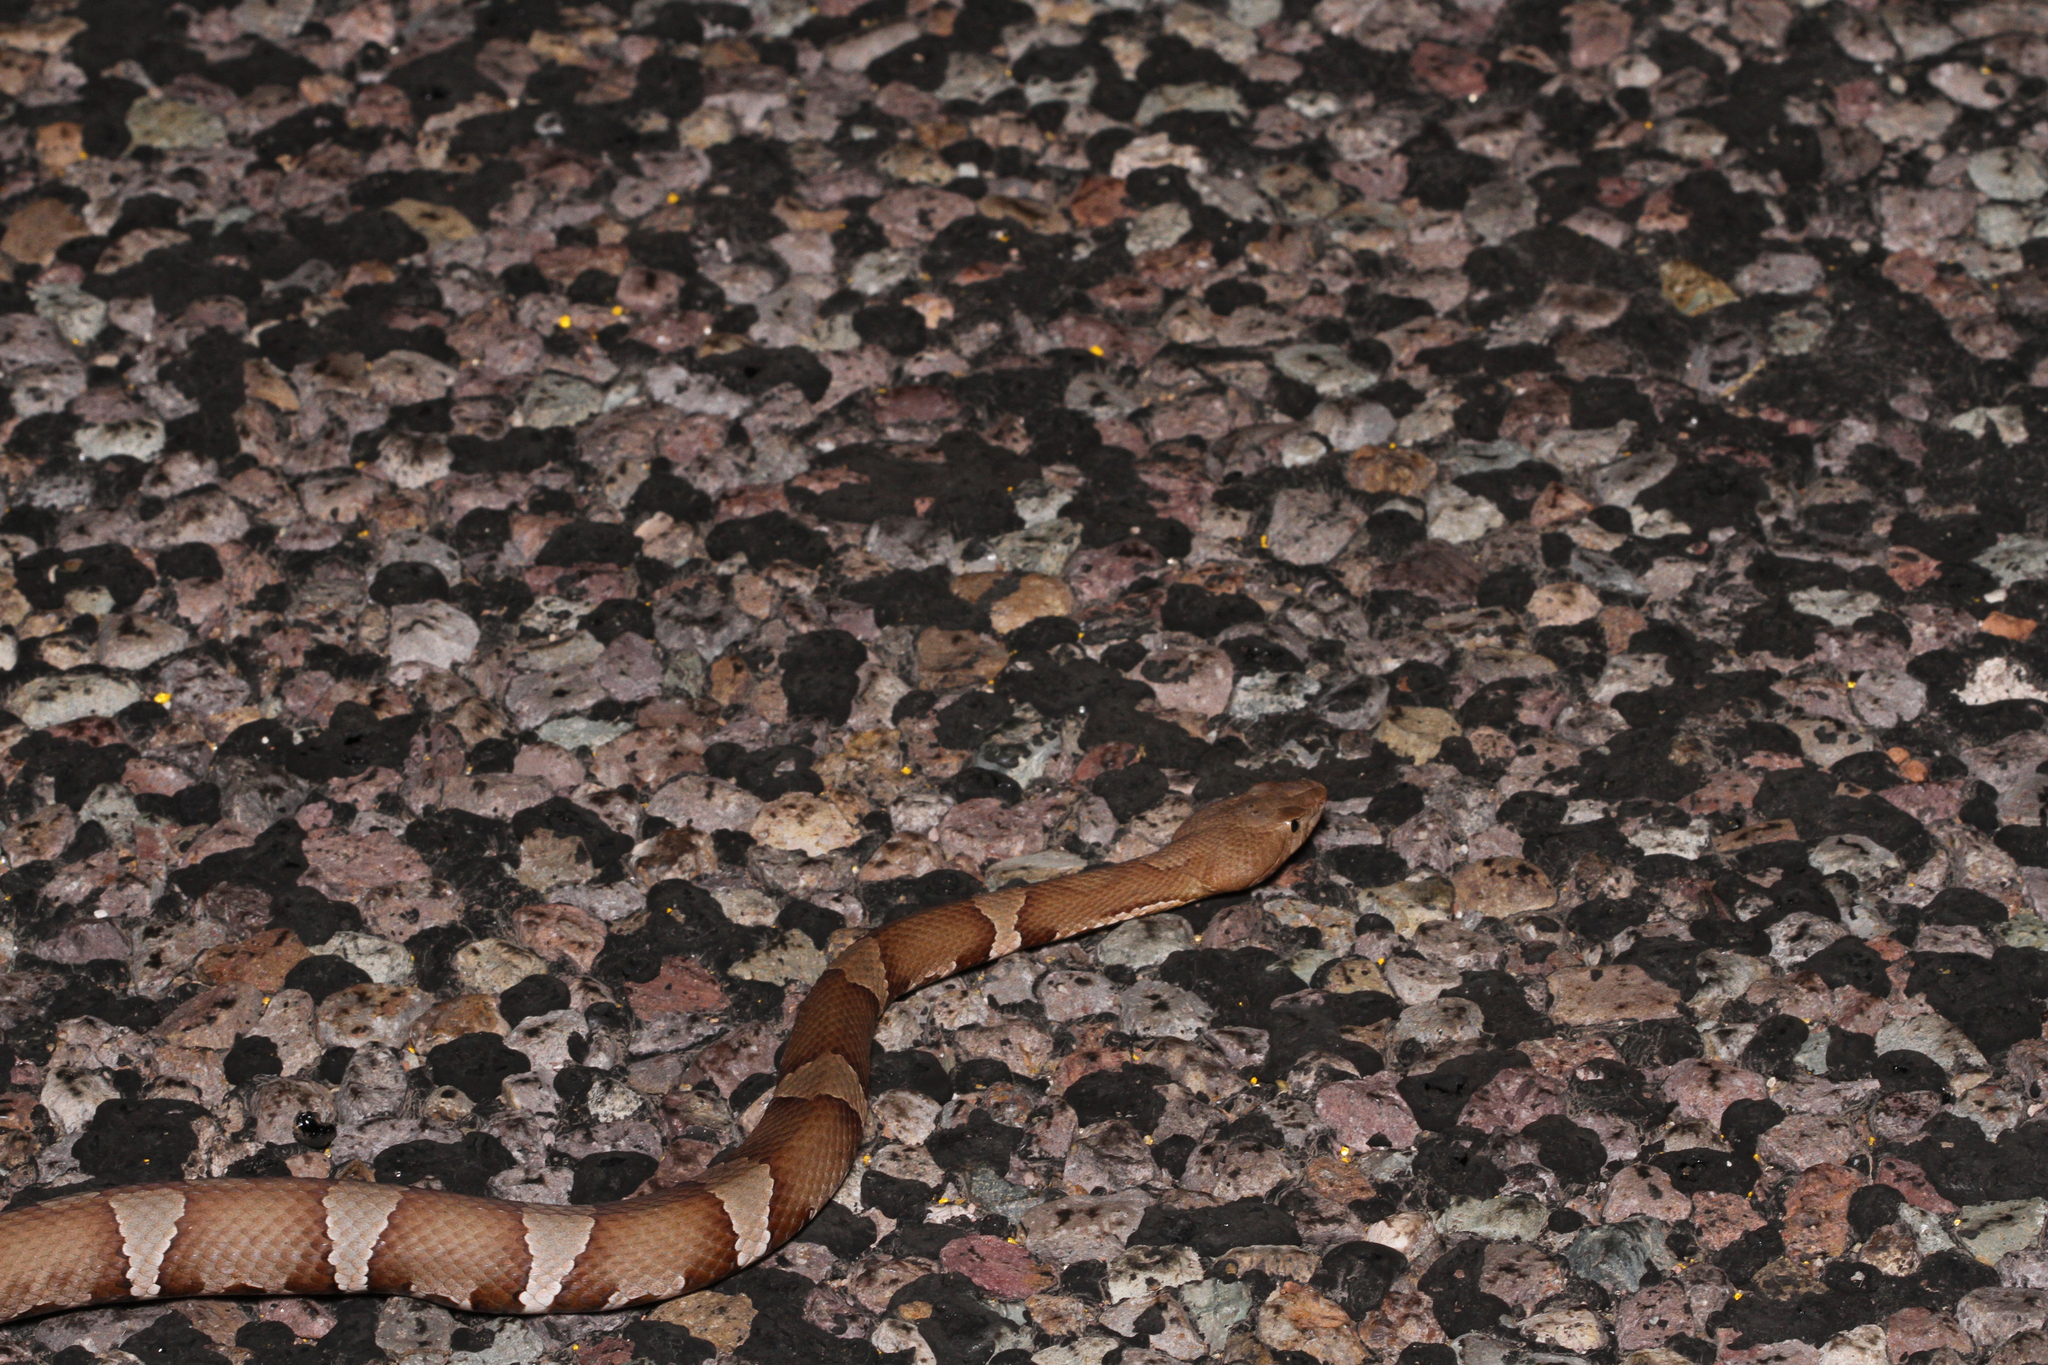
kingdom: Animalia
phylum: Chordata
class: Squamata
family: Viperidae
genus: Agkistrodon
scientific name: Agkistrodon laticinctus
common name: Broad-banded copperhead
